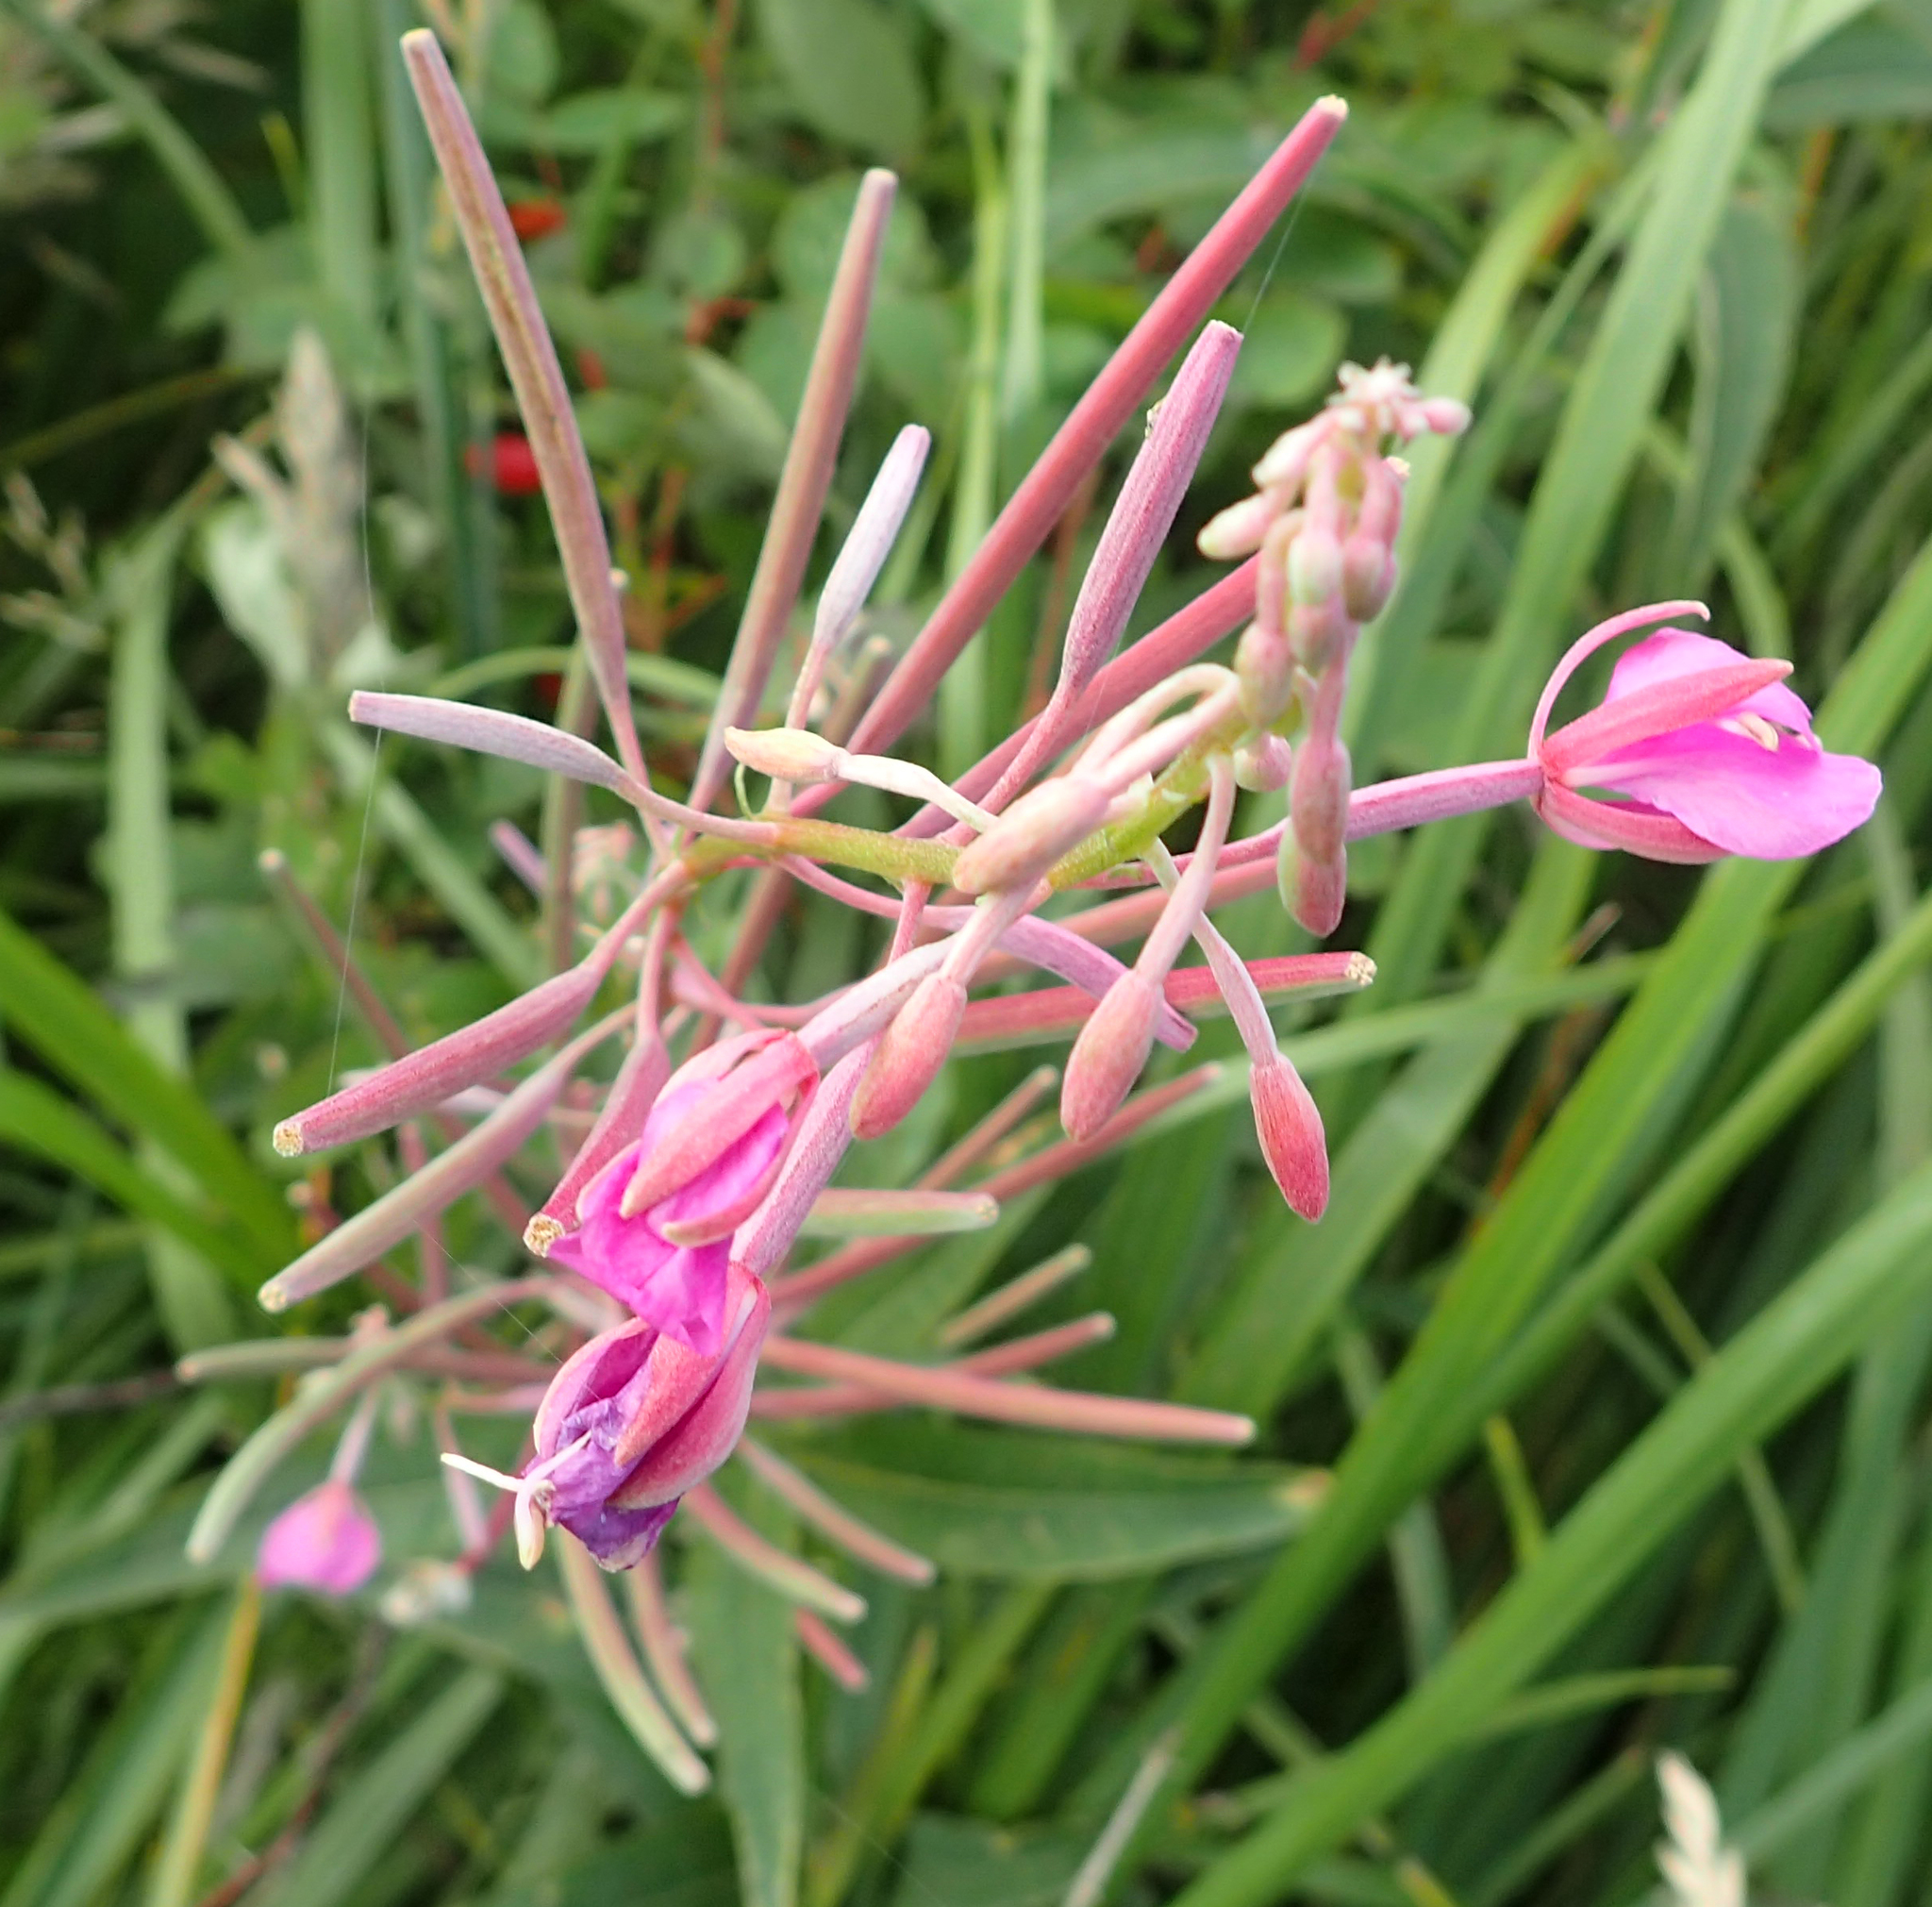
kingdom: Plantae
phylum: Tracheophyta
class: Magnoliopsida
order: Myrtales
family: Onagraceae
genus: Chamaenerion
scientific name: Chamaenerion angustifolium
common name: Fireweed
